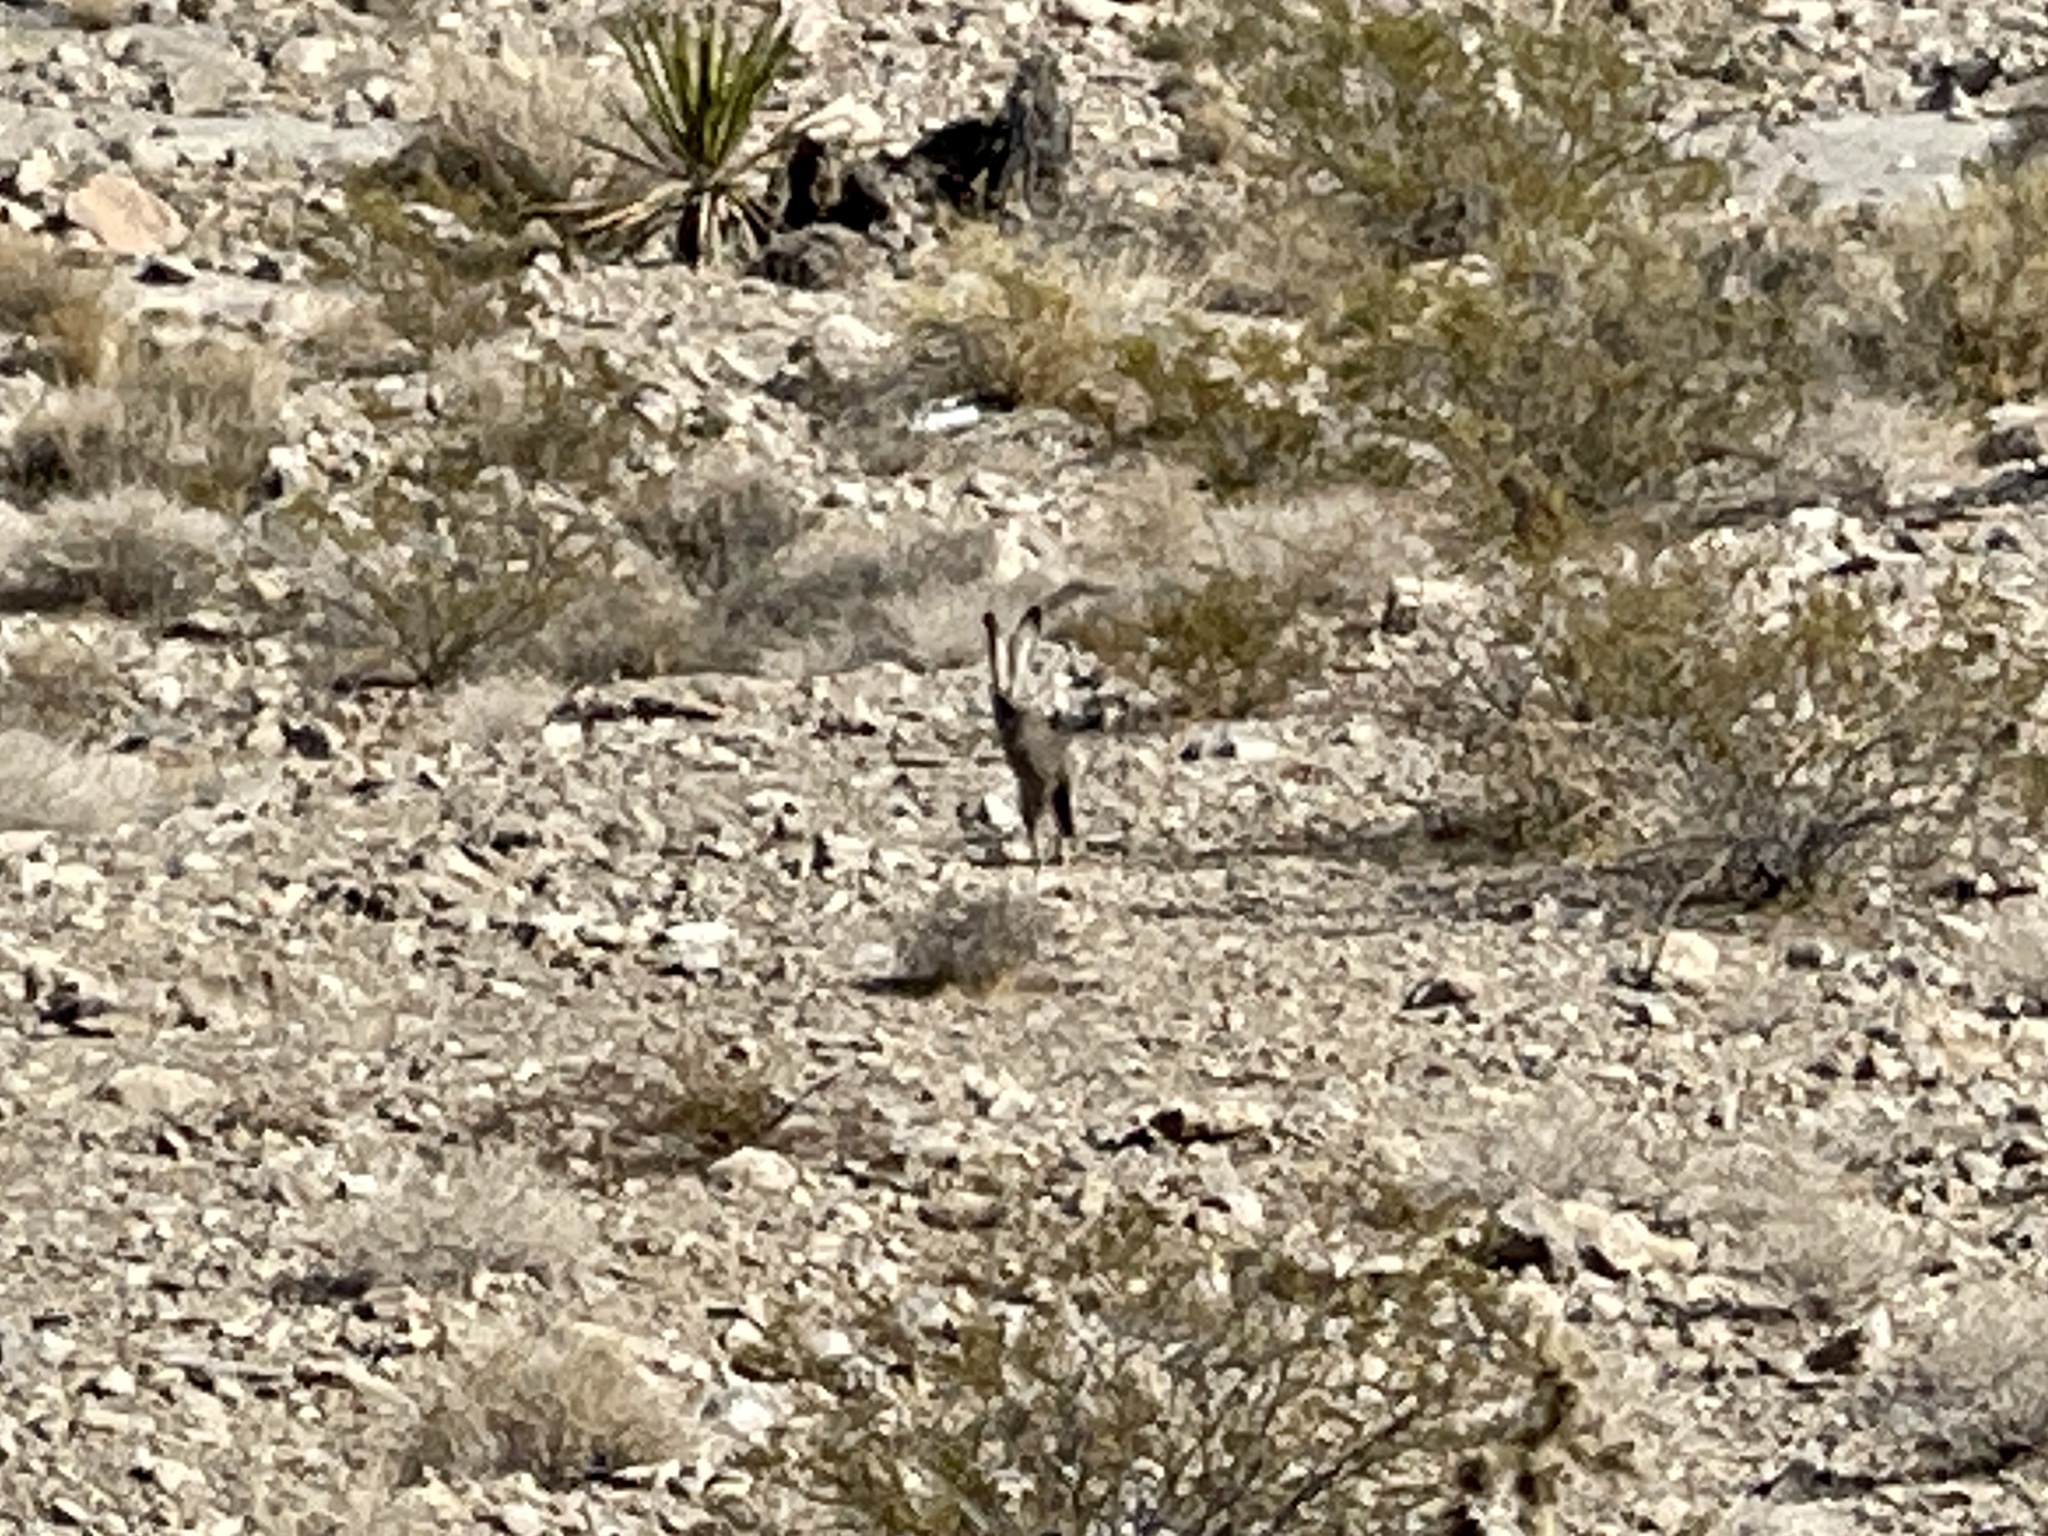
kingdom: Animalia
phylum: Chordata
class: Mammalia
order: Lagomorpha
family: Leporidae
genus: Lepus
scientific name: Lepus californicus
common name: Black-tailed jackrabbit
